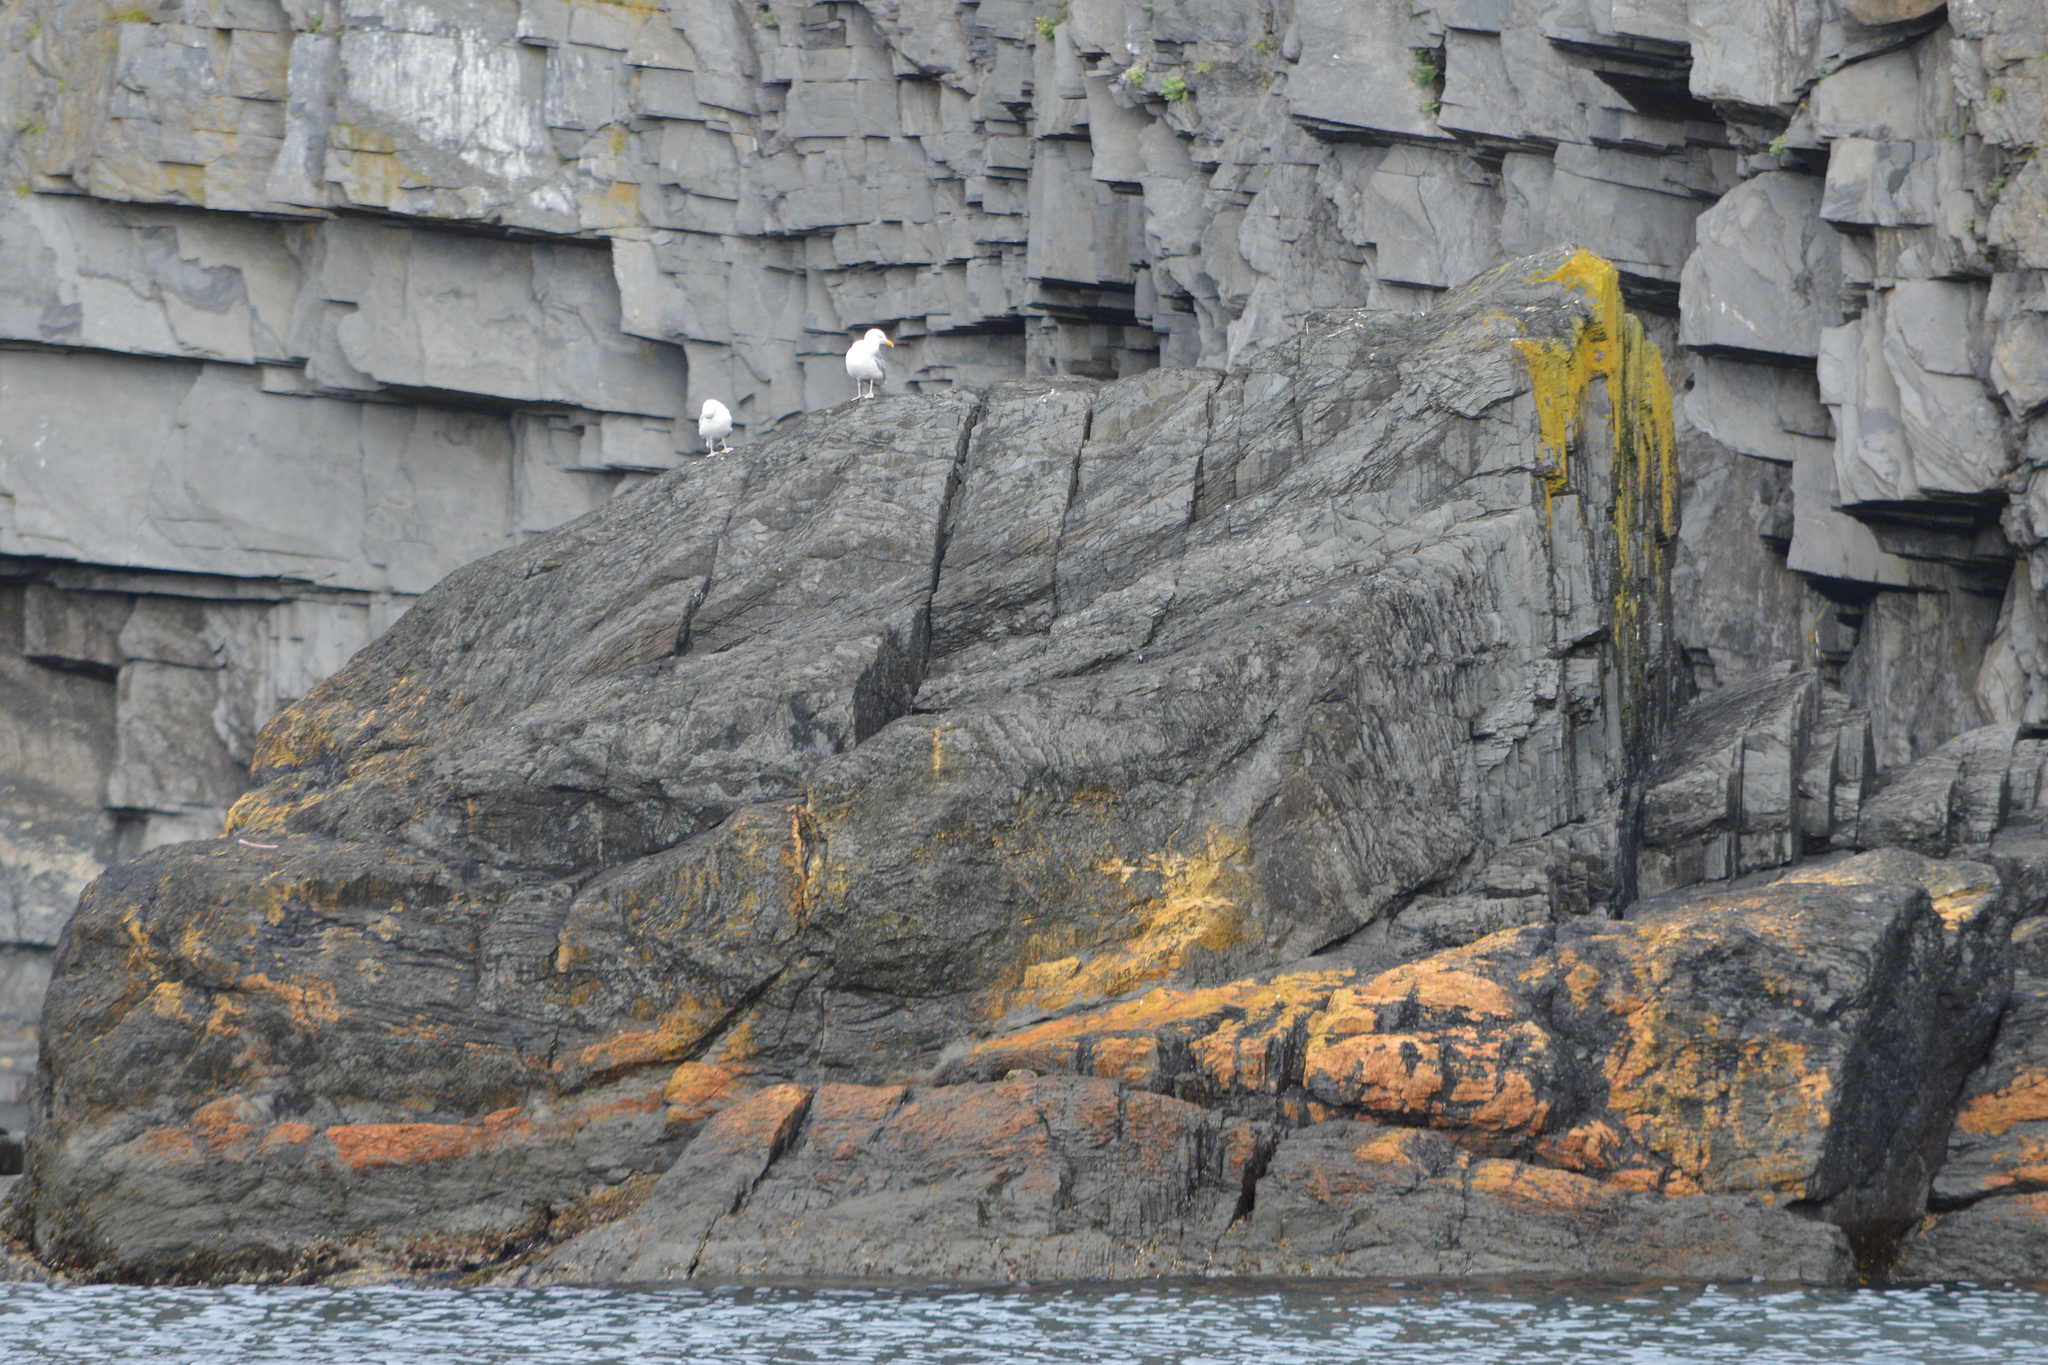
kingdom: Animalia
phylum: Chordata
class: Aves
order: Charadriiformes
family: Laridae
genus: Larus
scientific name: Larus argentatus
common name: Herring gull
